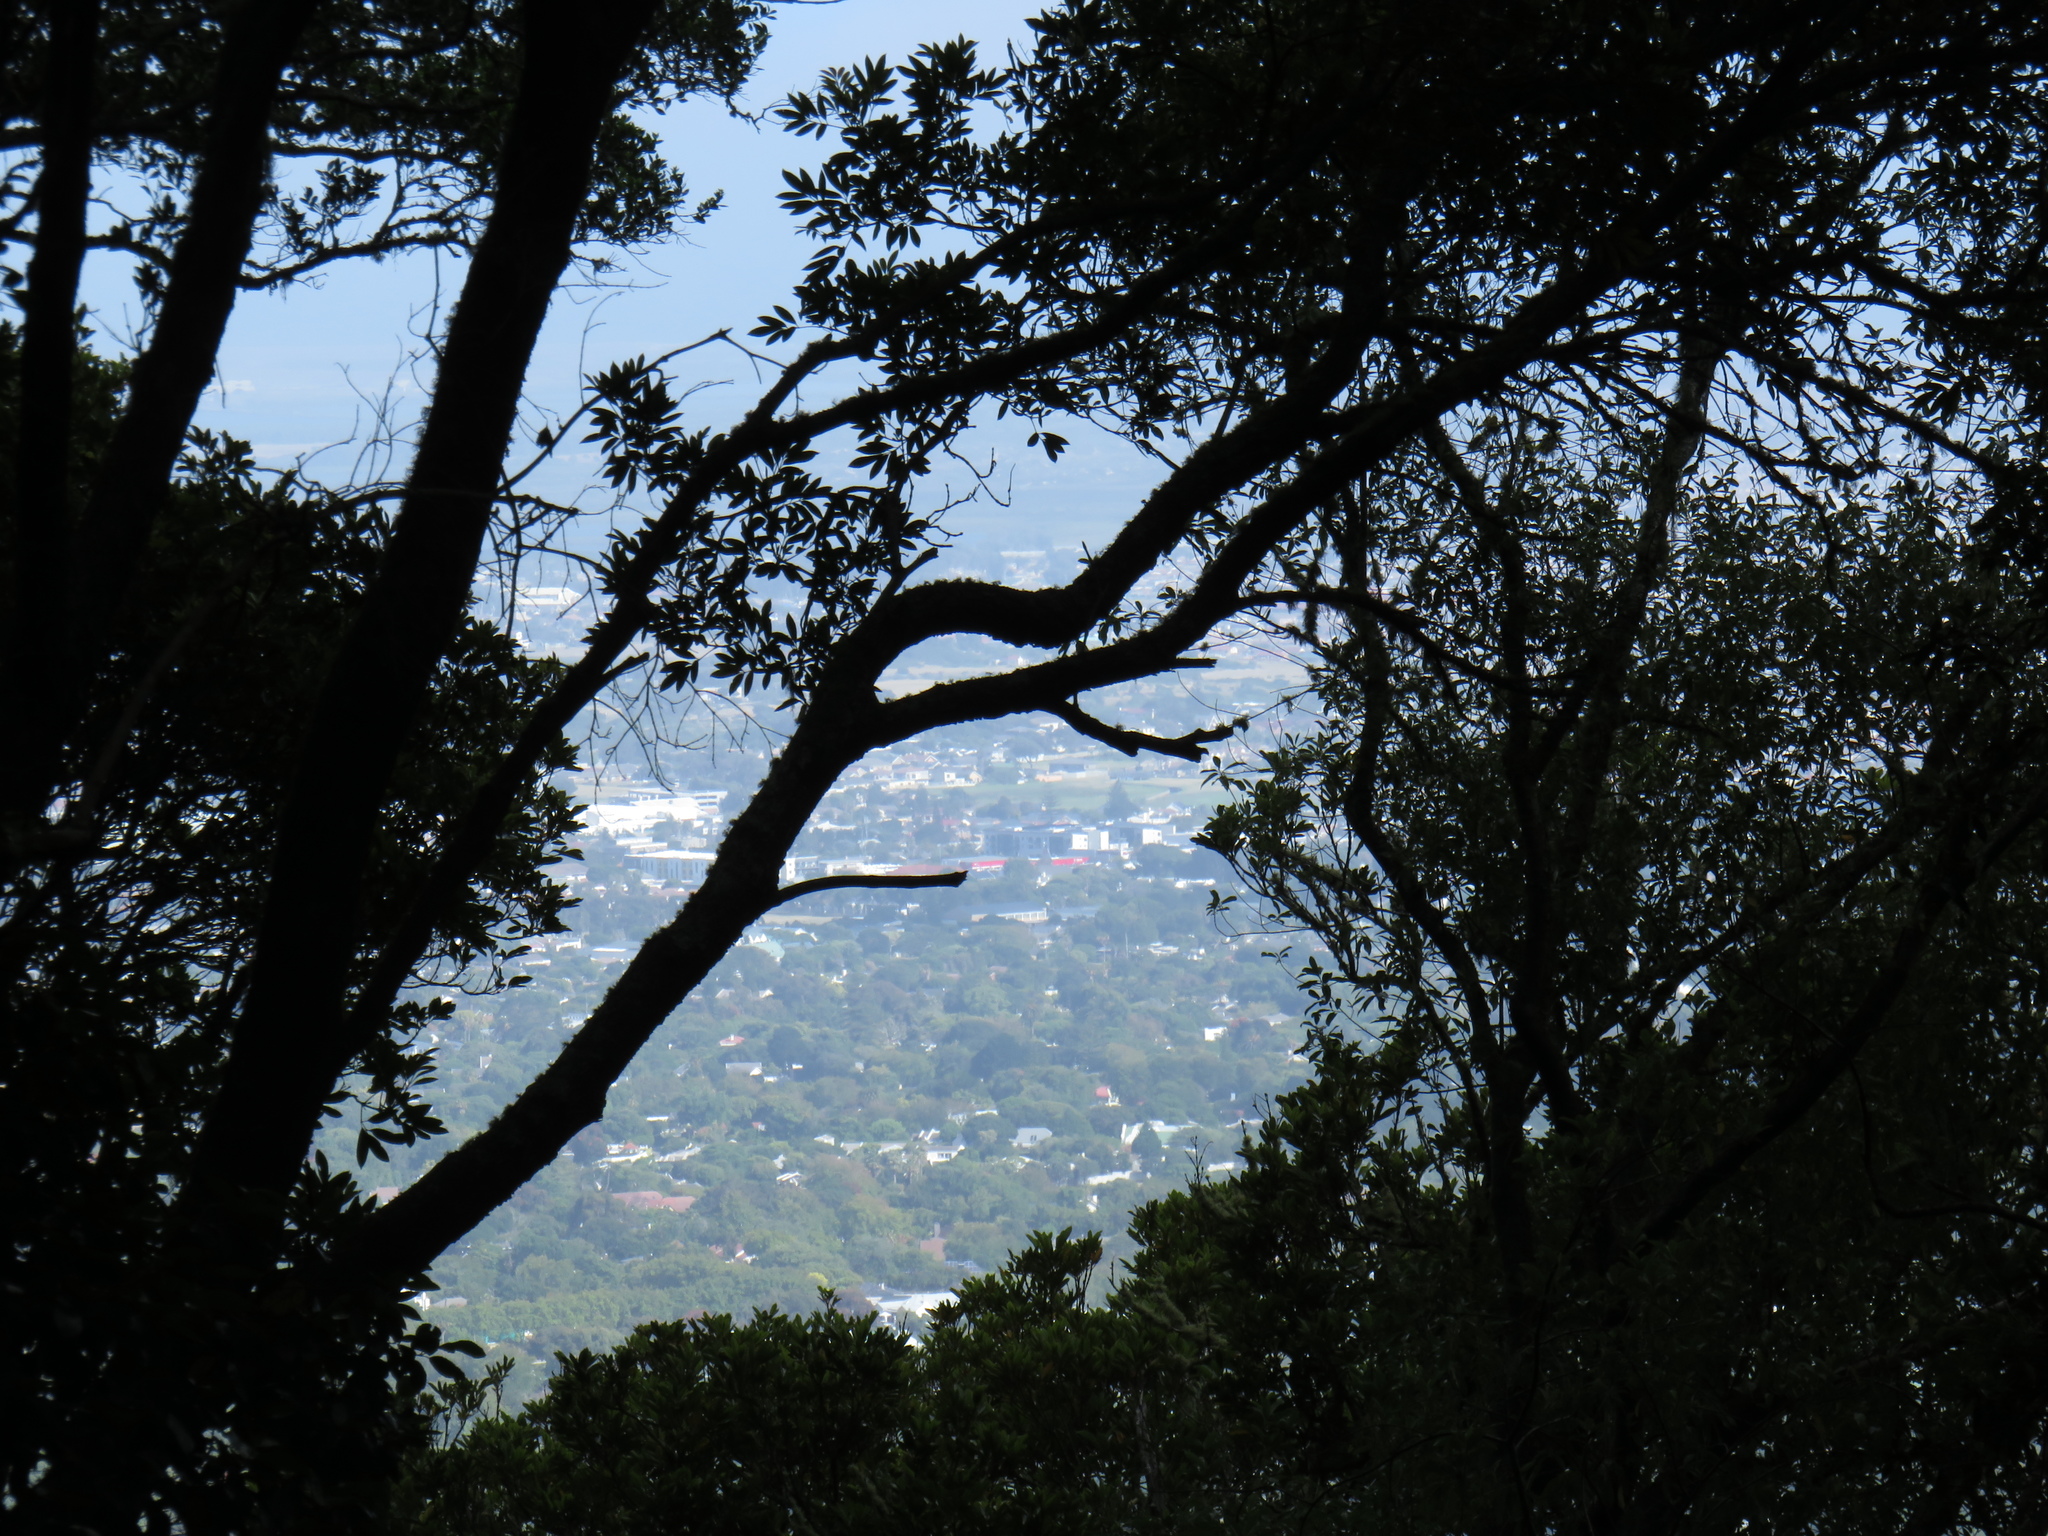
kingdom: Plantae
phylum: Tracheophyta
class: Magnoliopsida
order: Oxalidales
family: Cunoniaceae
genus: Cunonia
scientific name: Cunonia capensis
